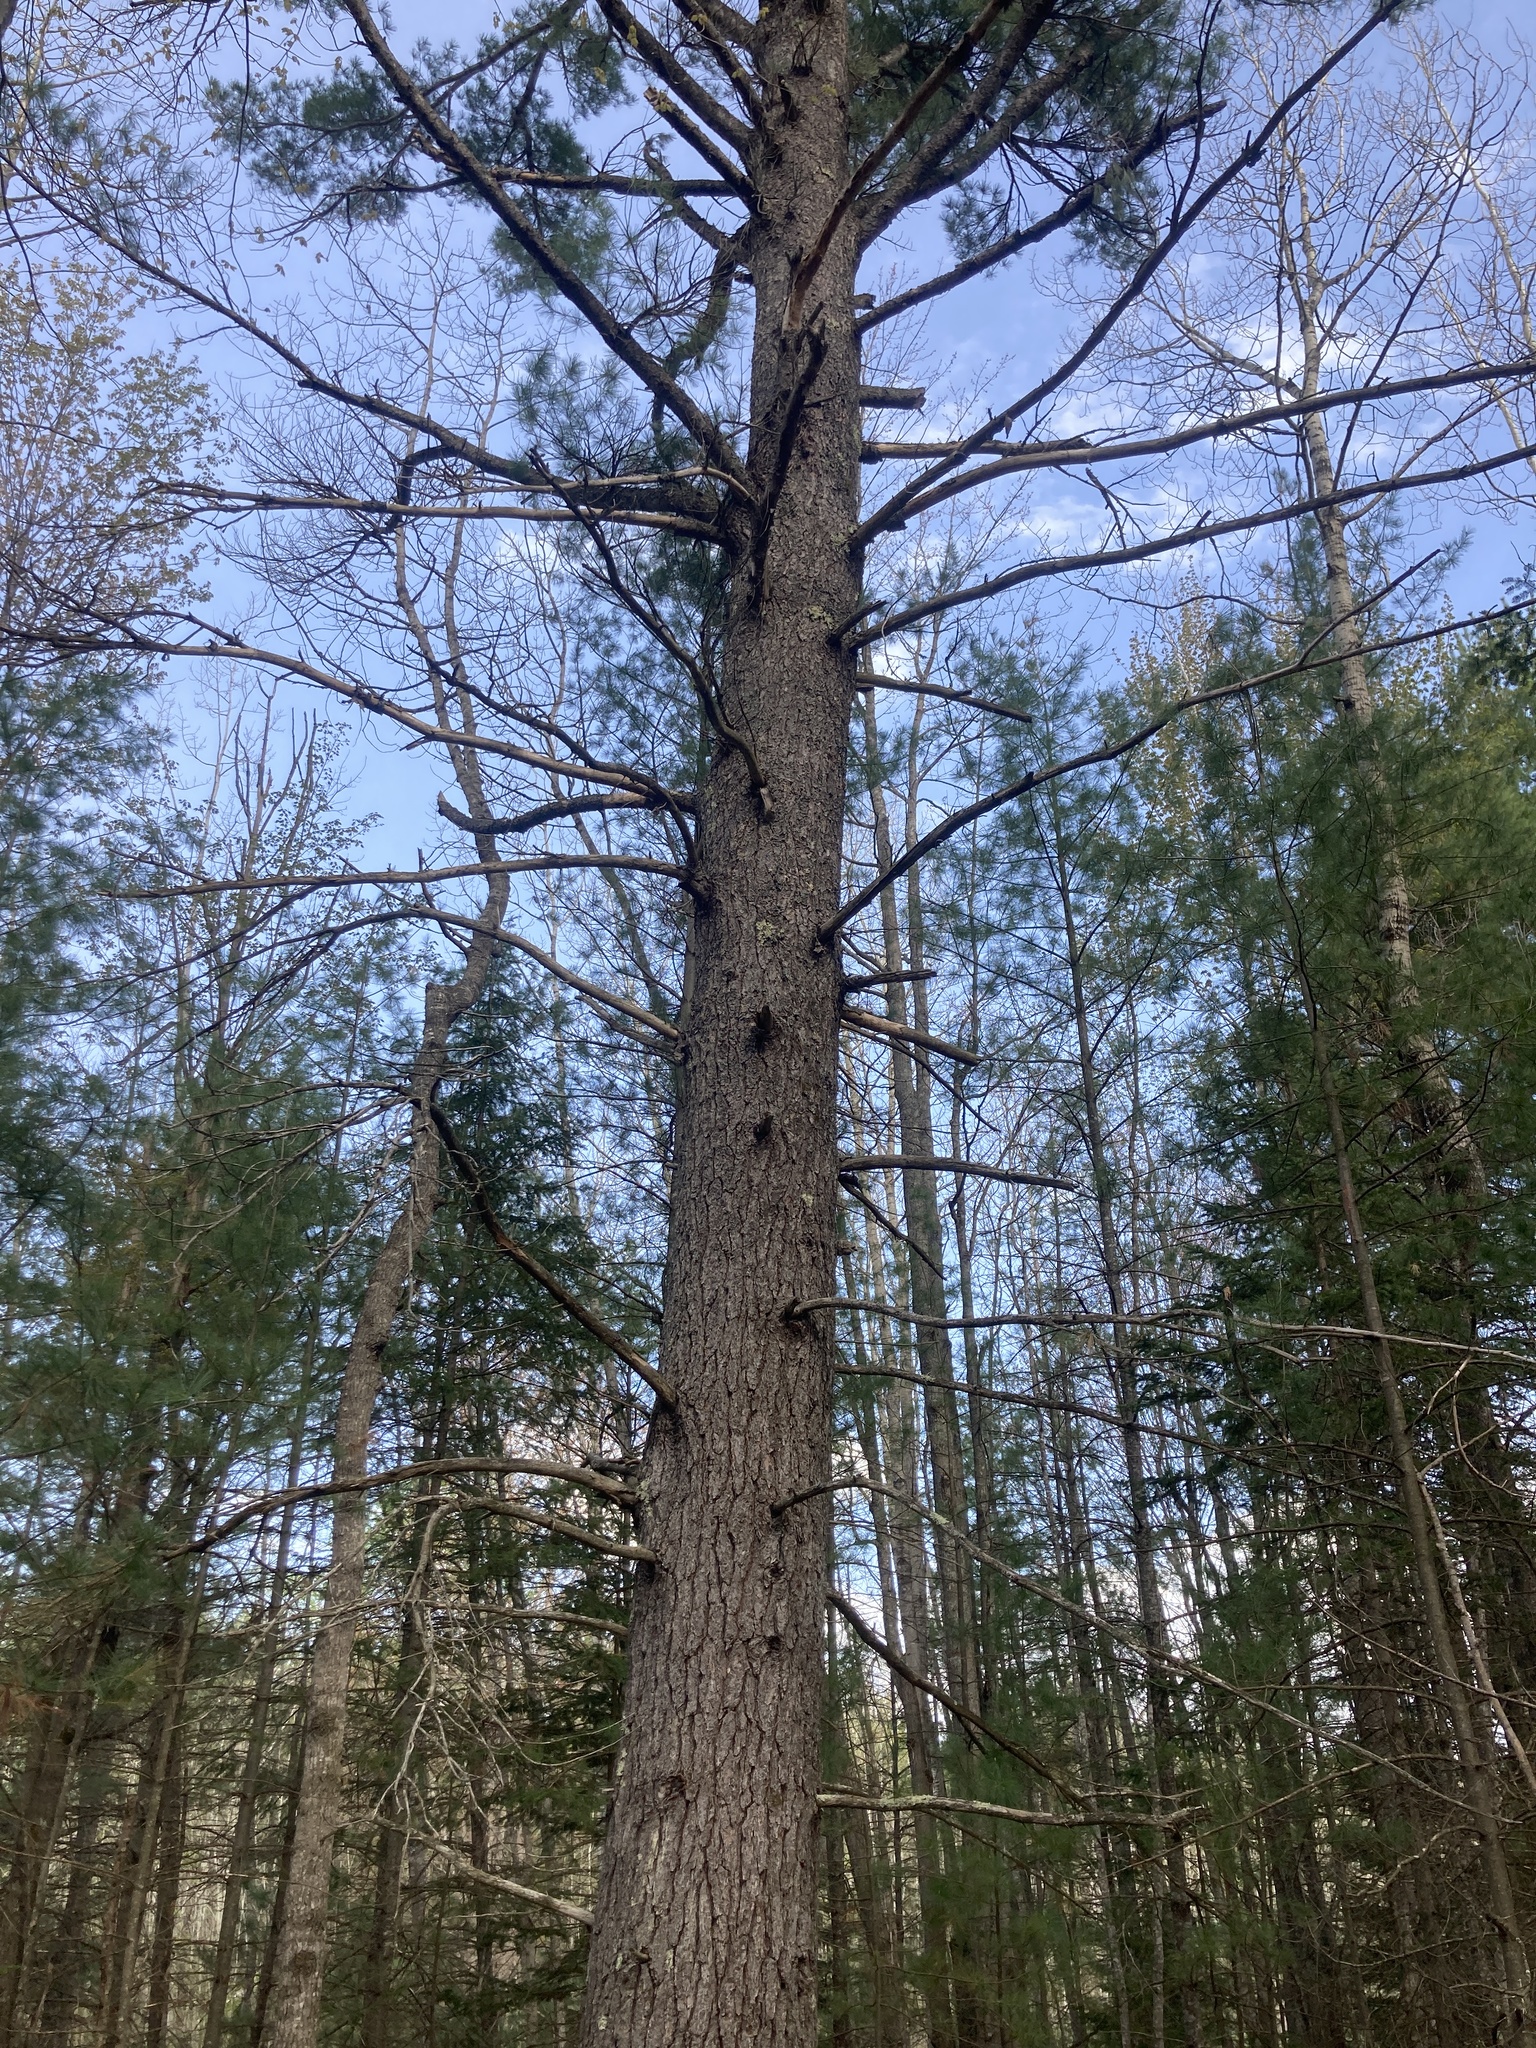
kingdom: Plantae
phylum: Tracheophyta
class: Pinopsida
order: Pinales
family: Pinaceae
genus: Pinus
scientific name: Pinus strobus
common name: Weymouth pine
